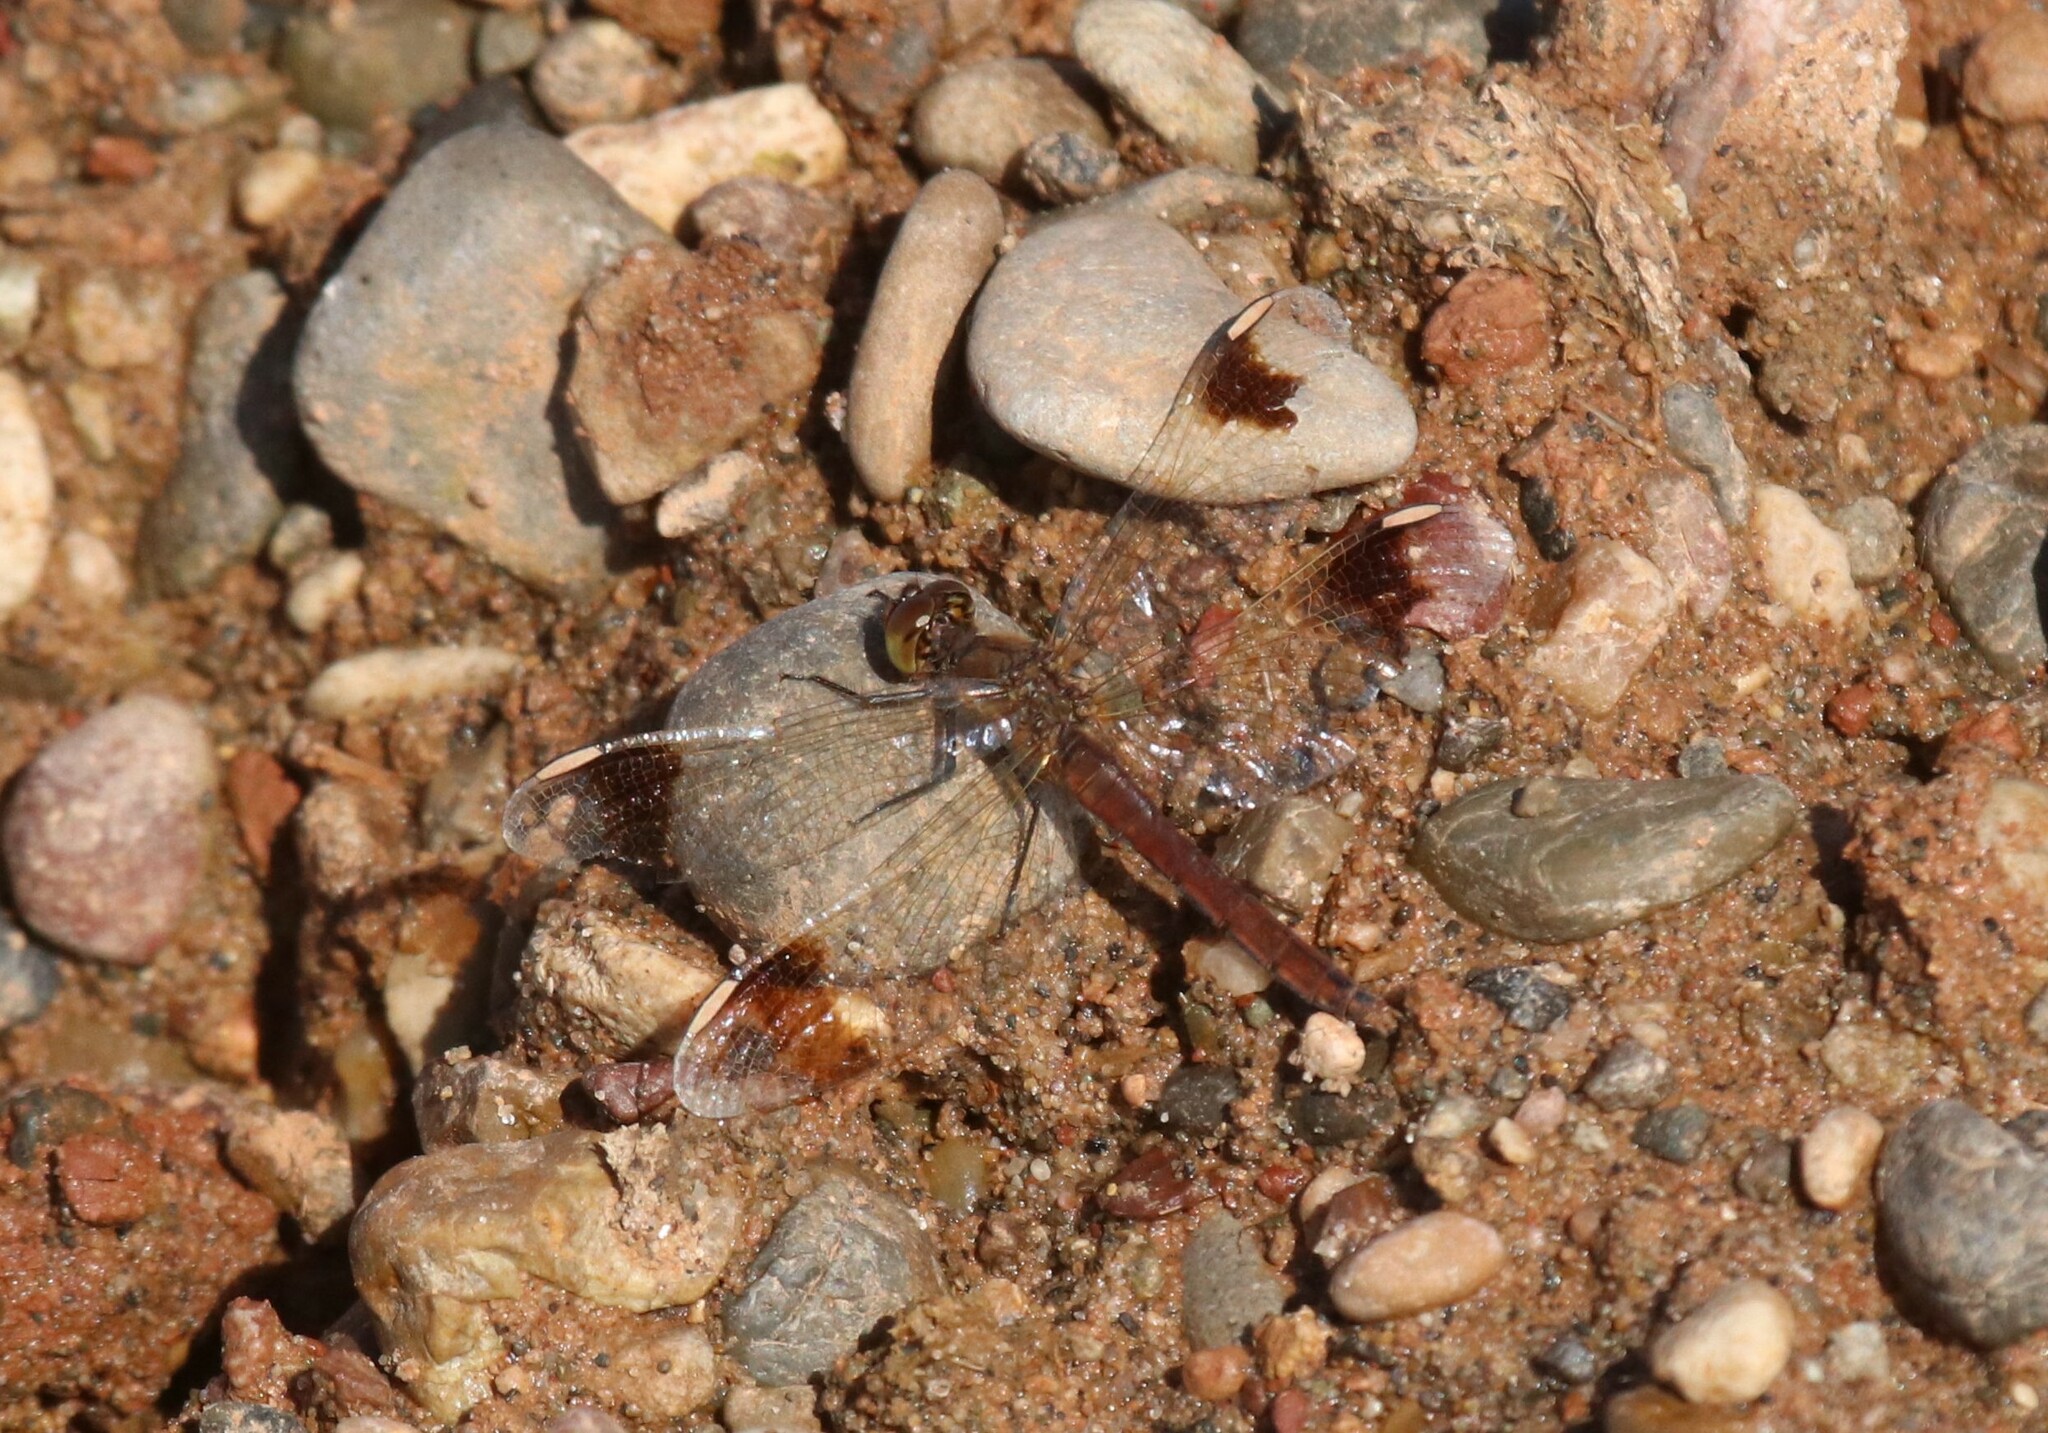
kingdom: Animalia
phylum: Arthropoda
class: Insecta
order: Odonata
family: Libellulidae
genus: Sympetrum
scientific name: Sympetrum pedemontanum
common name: Banded darter
